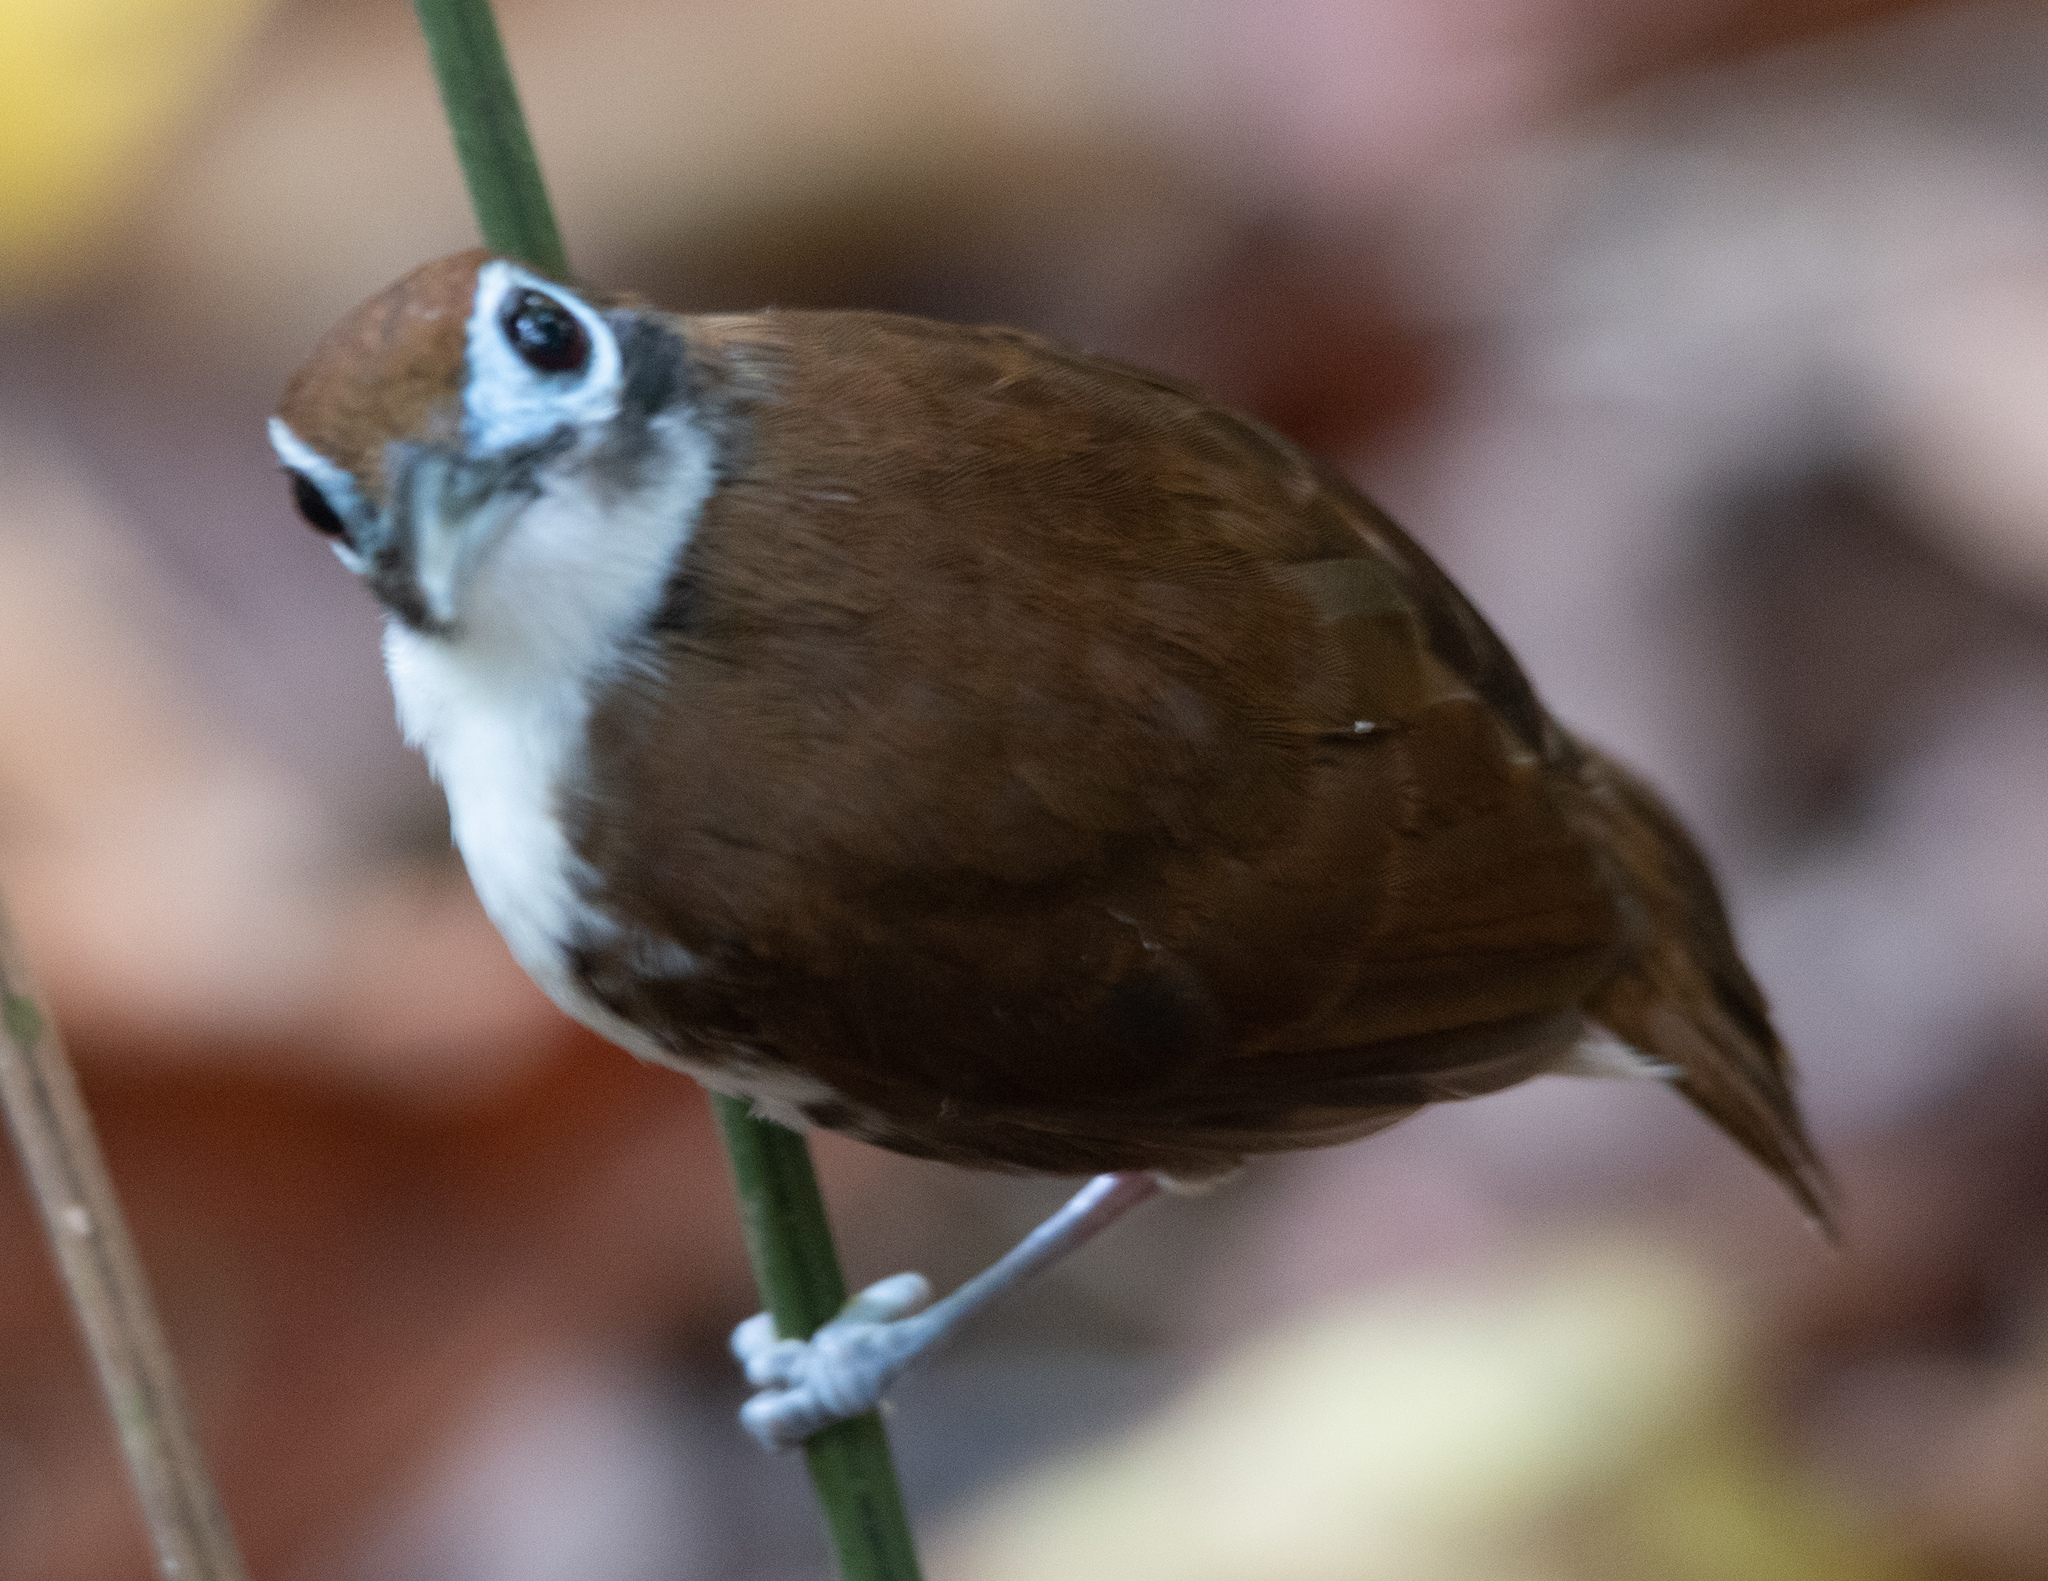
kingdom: Animalia
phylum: Chordata
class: Aves
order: Passeriformes
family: Thamnophilidae
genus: Gymnopithys
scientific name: Gymnopithys leucaspis
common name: White-cheeked antbird
